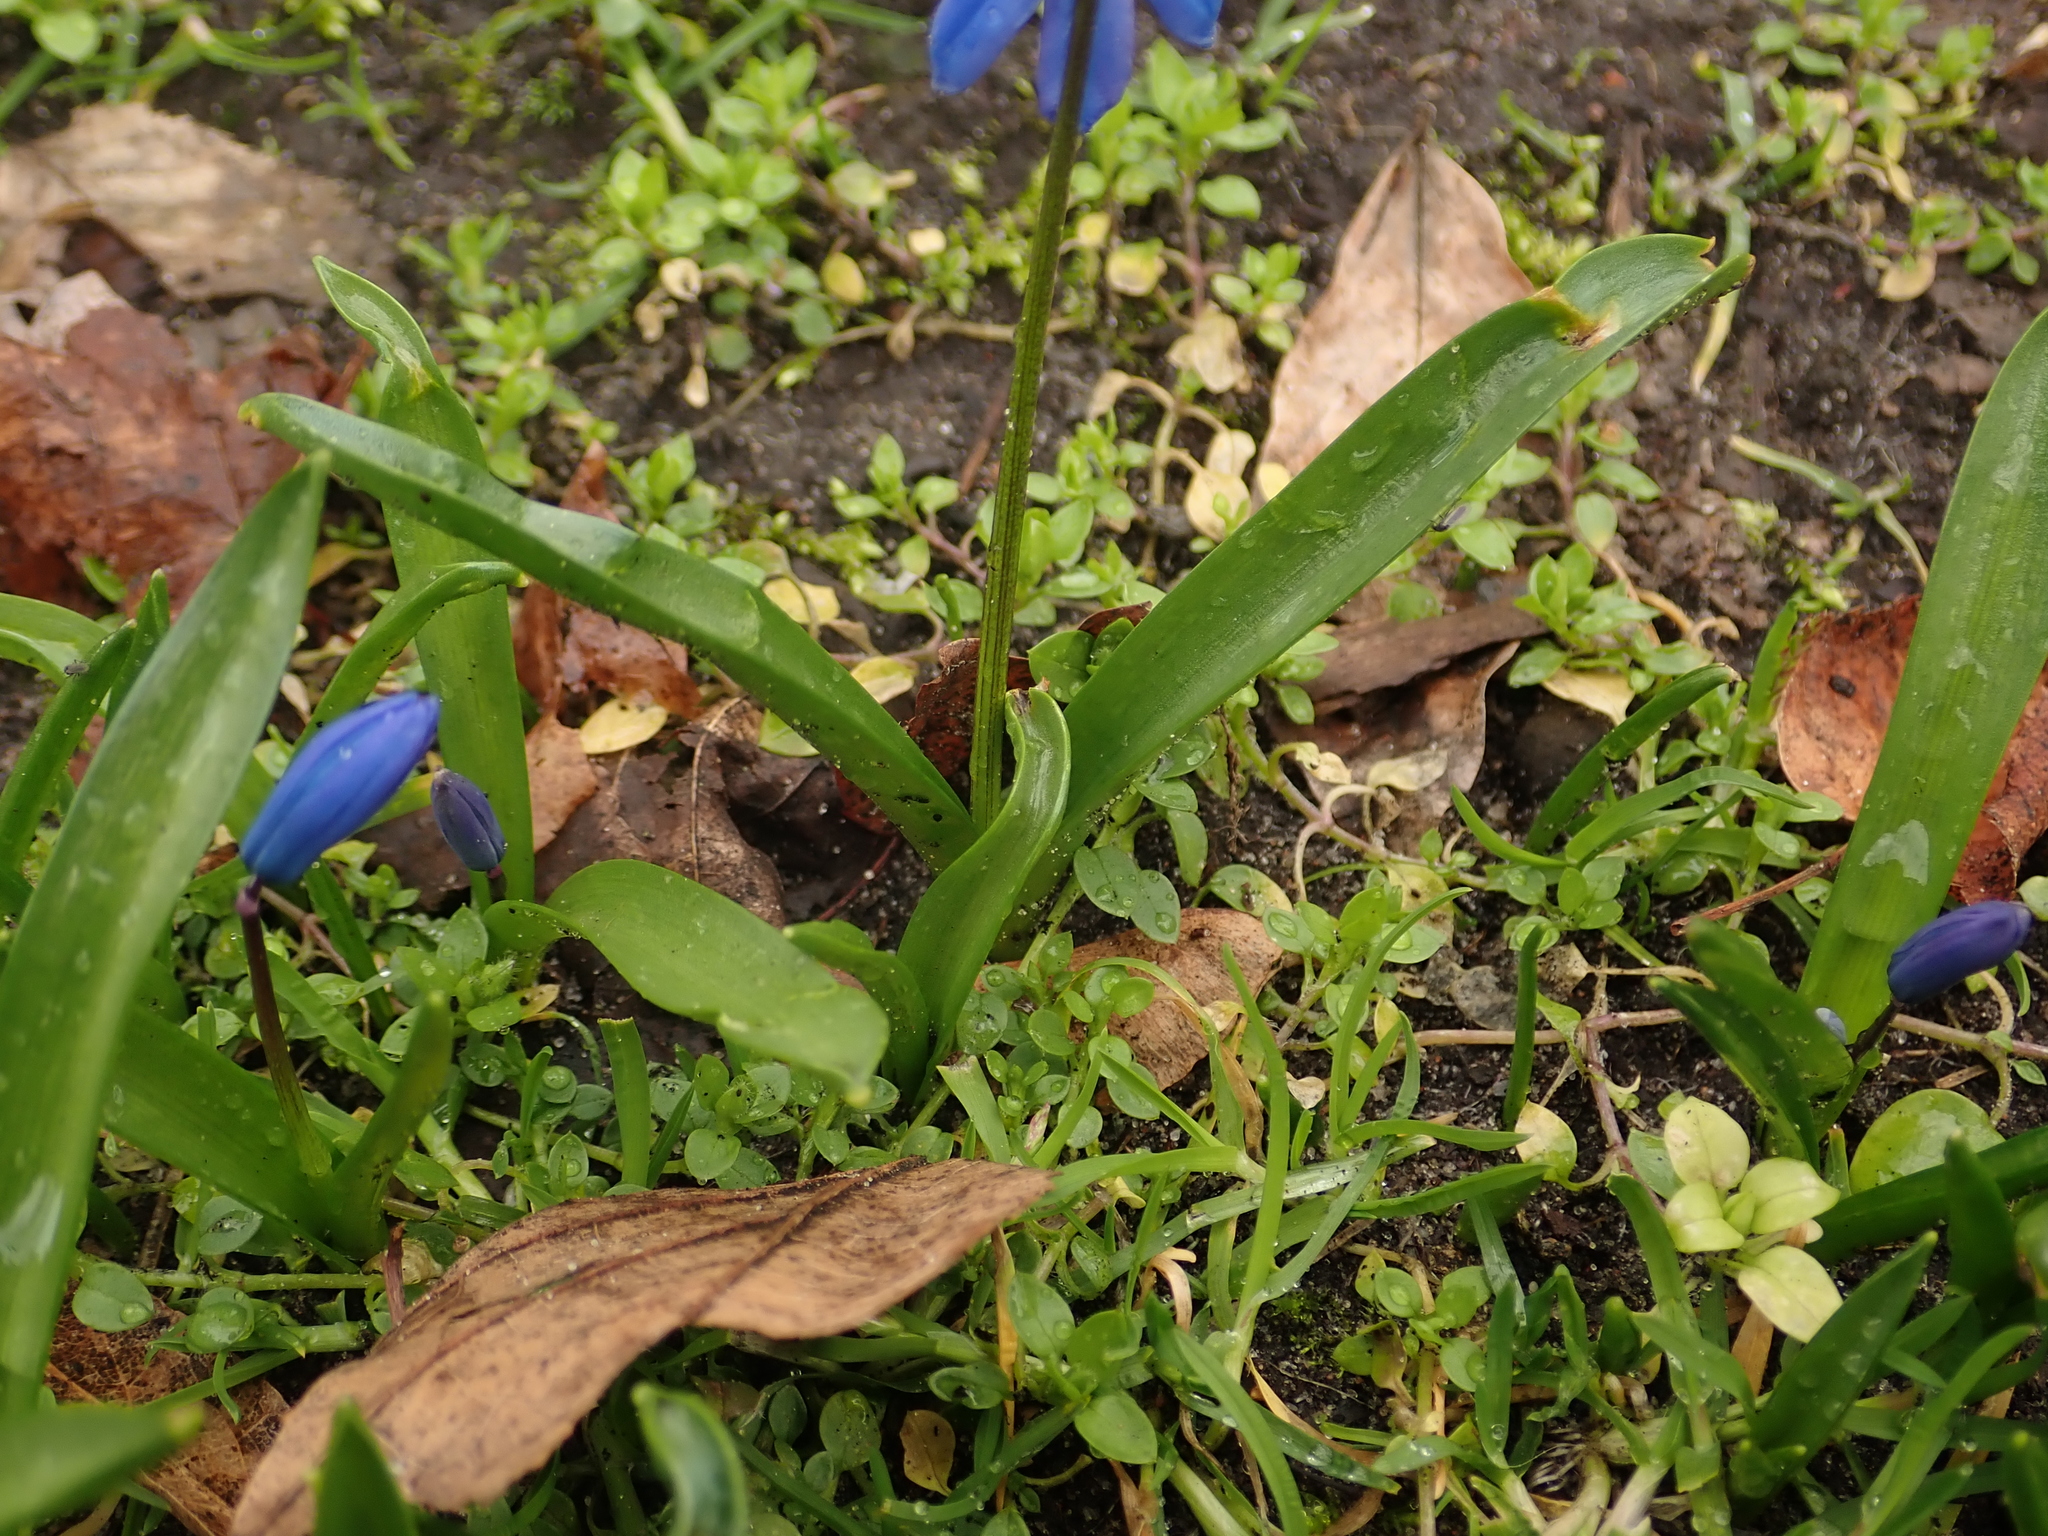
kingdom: Plantae
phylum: Tracheophyta
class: Liliopsida
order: Asparagales
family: Asparagaceae
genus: Scilla
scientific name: Scilla siberica
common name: Siberian squill
